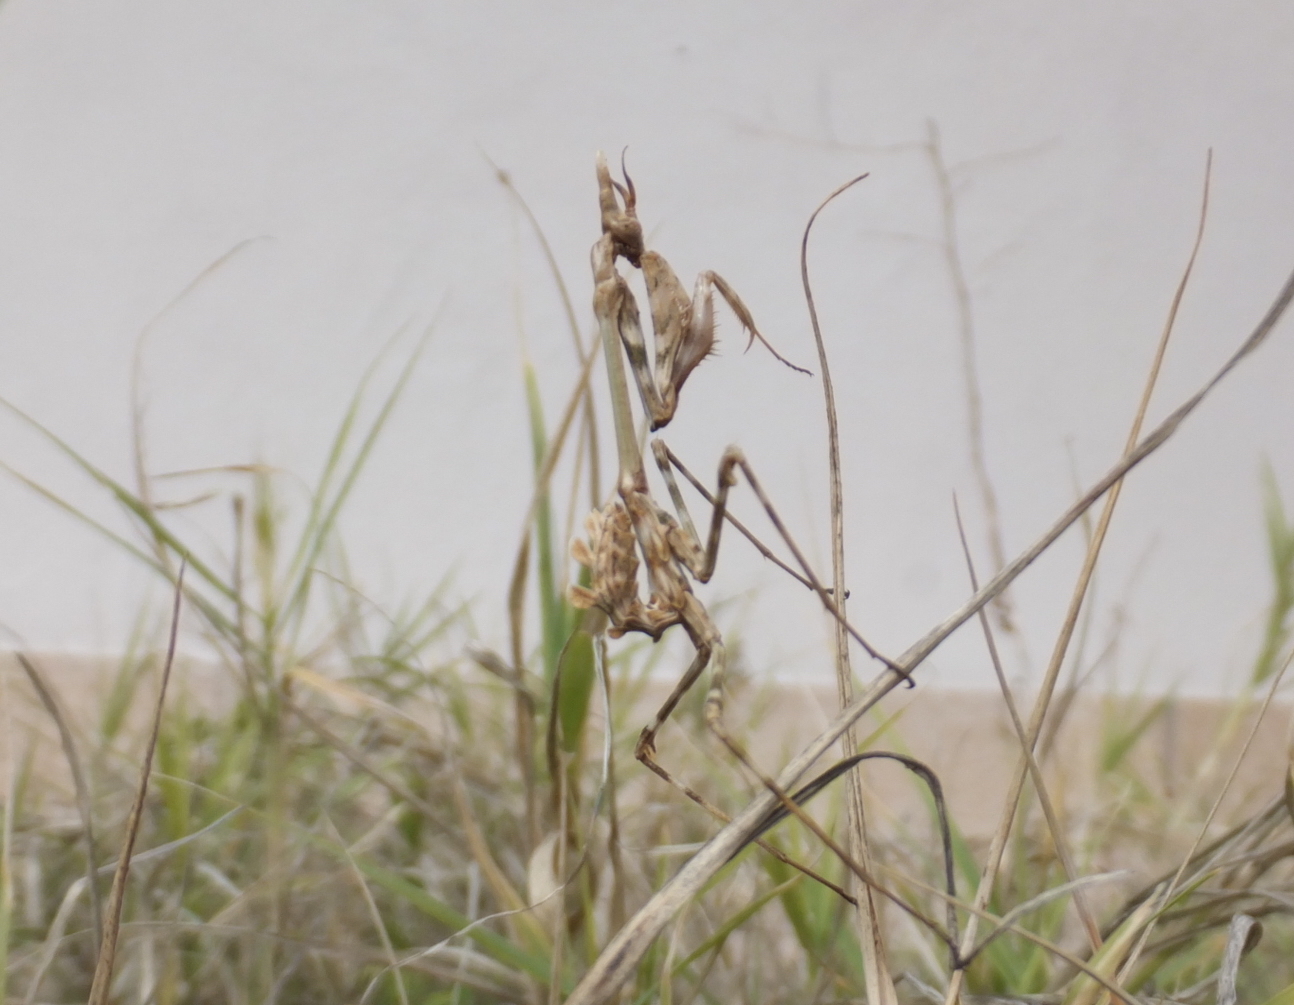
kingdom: Animalia
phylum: Arthropoda
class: Insecta
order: Mantodea
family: Empusidae
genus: Empusa
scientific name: Empusa pennata
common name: Conehead mantis
